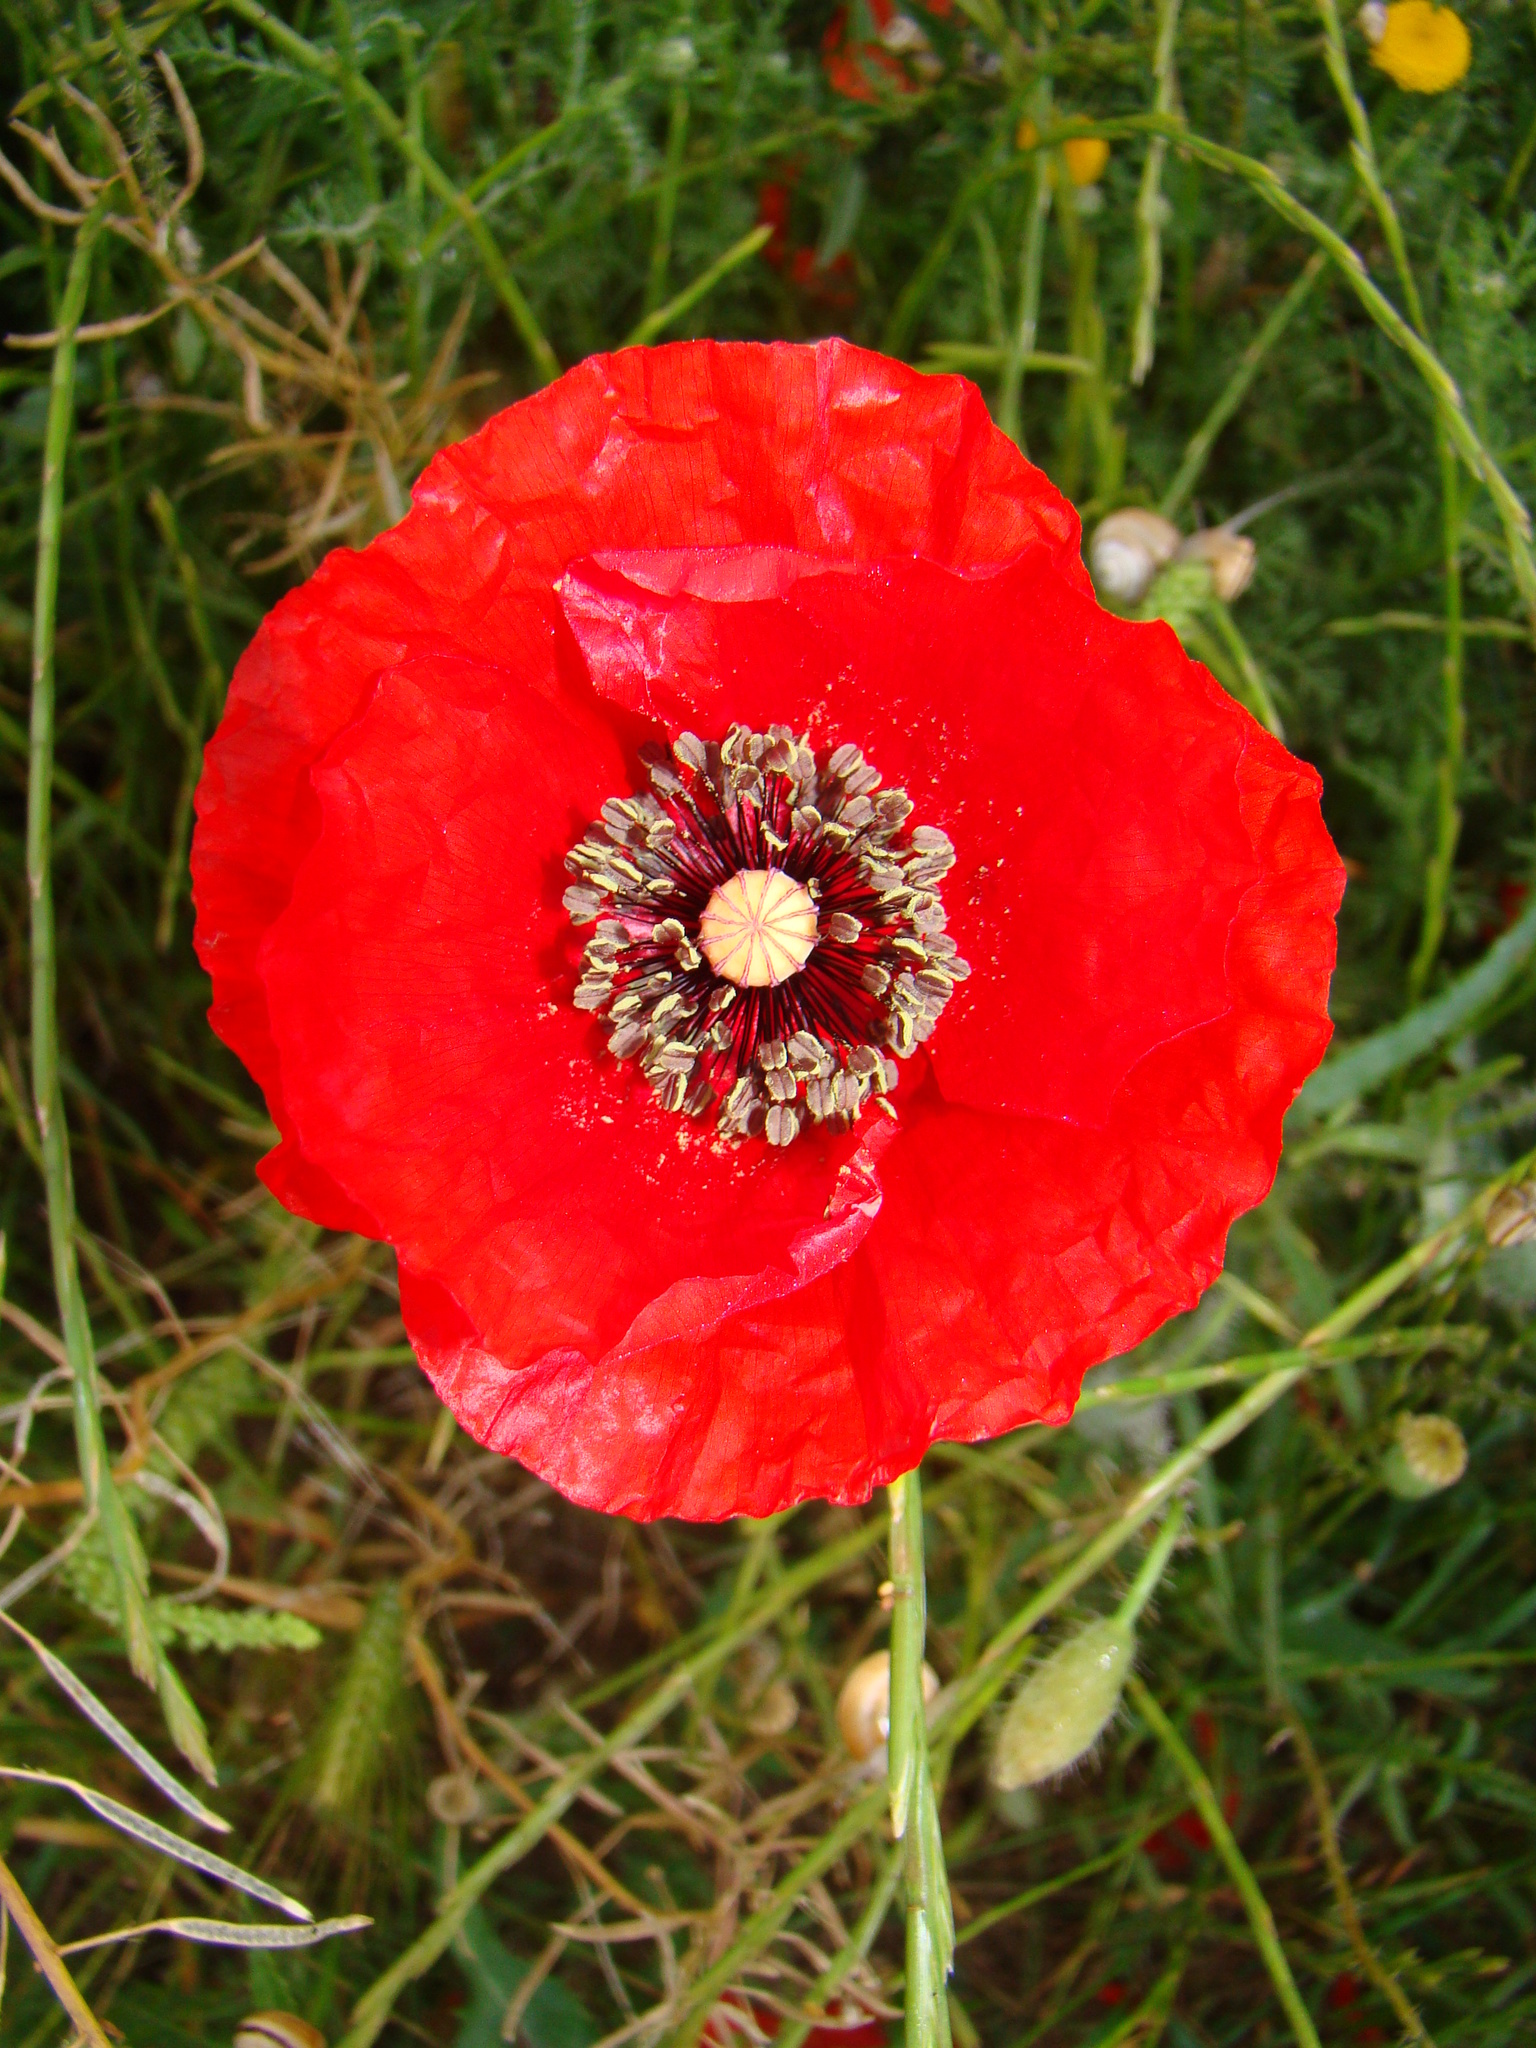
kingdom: Plantae
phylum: Tracheophyta
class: Magnoliopsida
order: Ranunculales
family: Papaveraceae
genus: Papaver
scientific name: Papaver rhoeas
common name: Corn poppy
